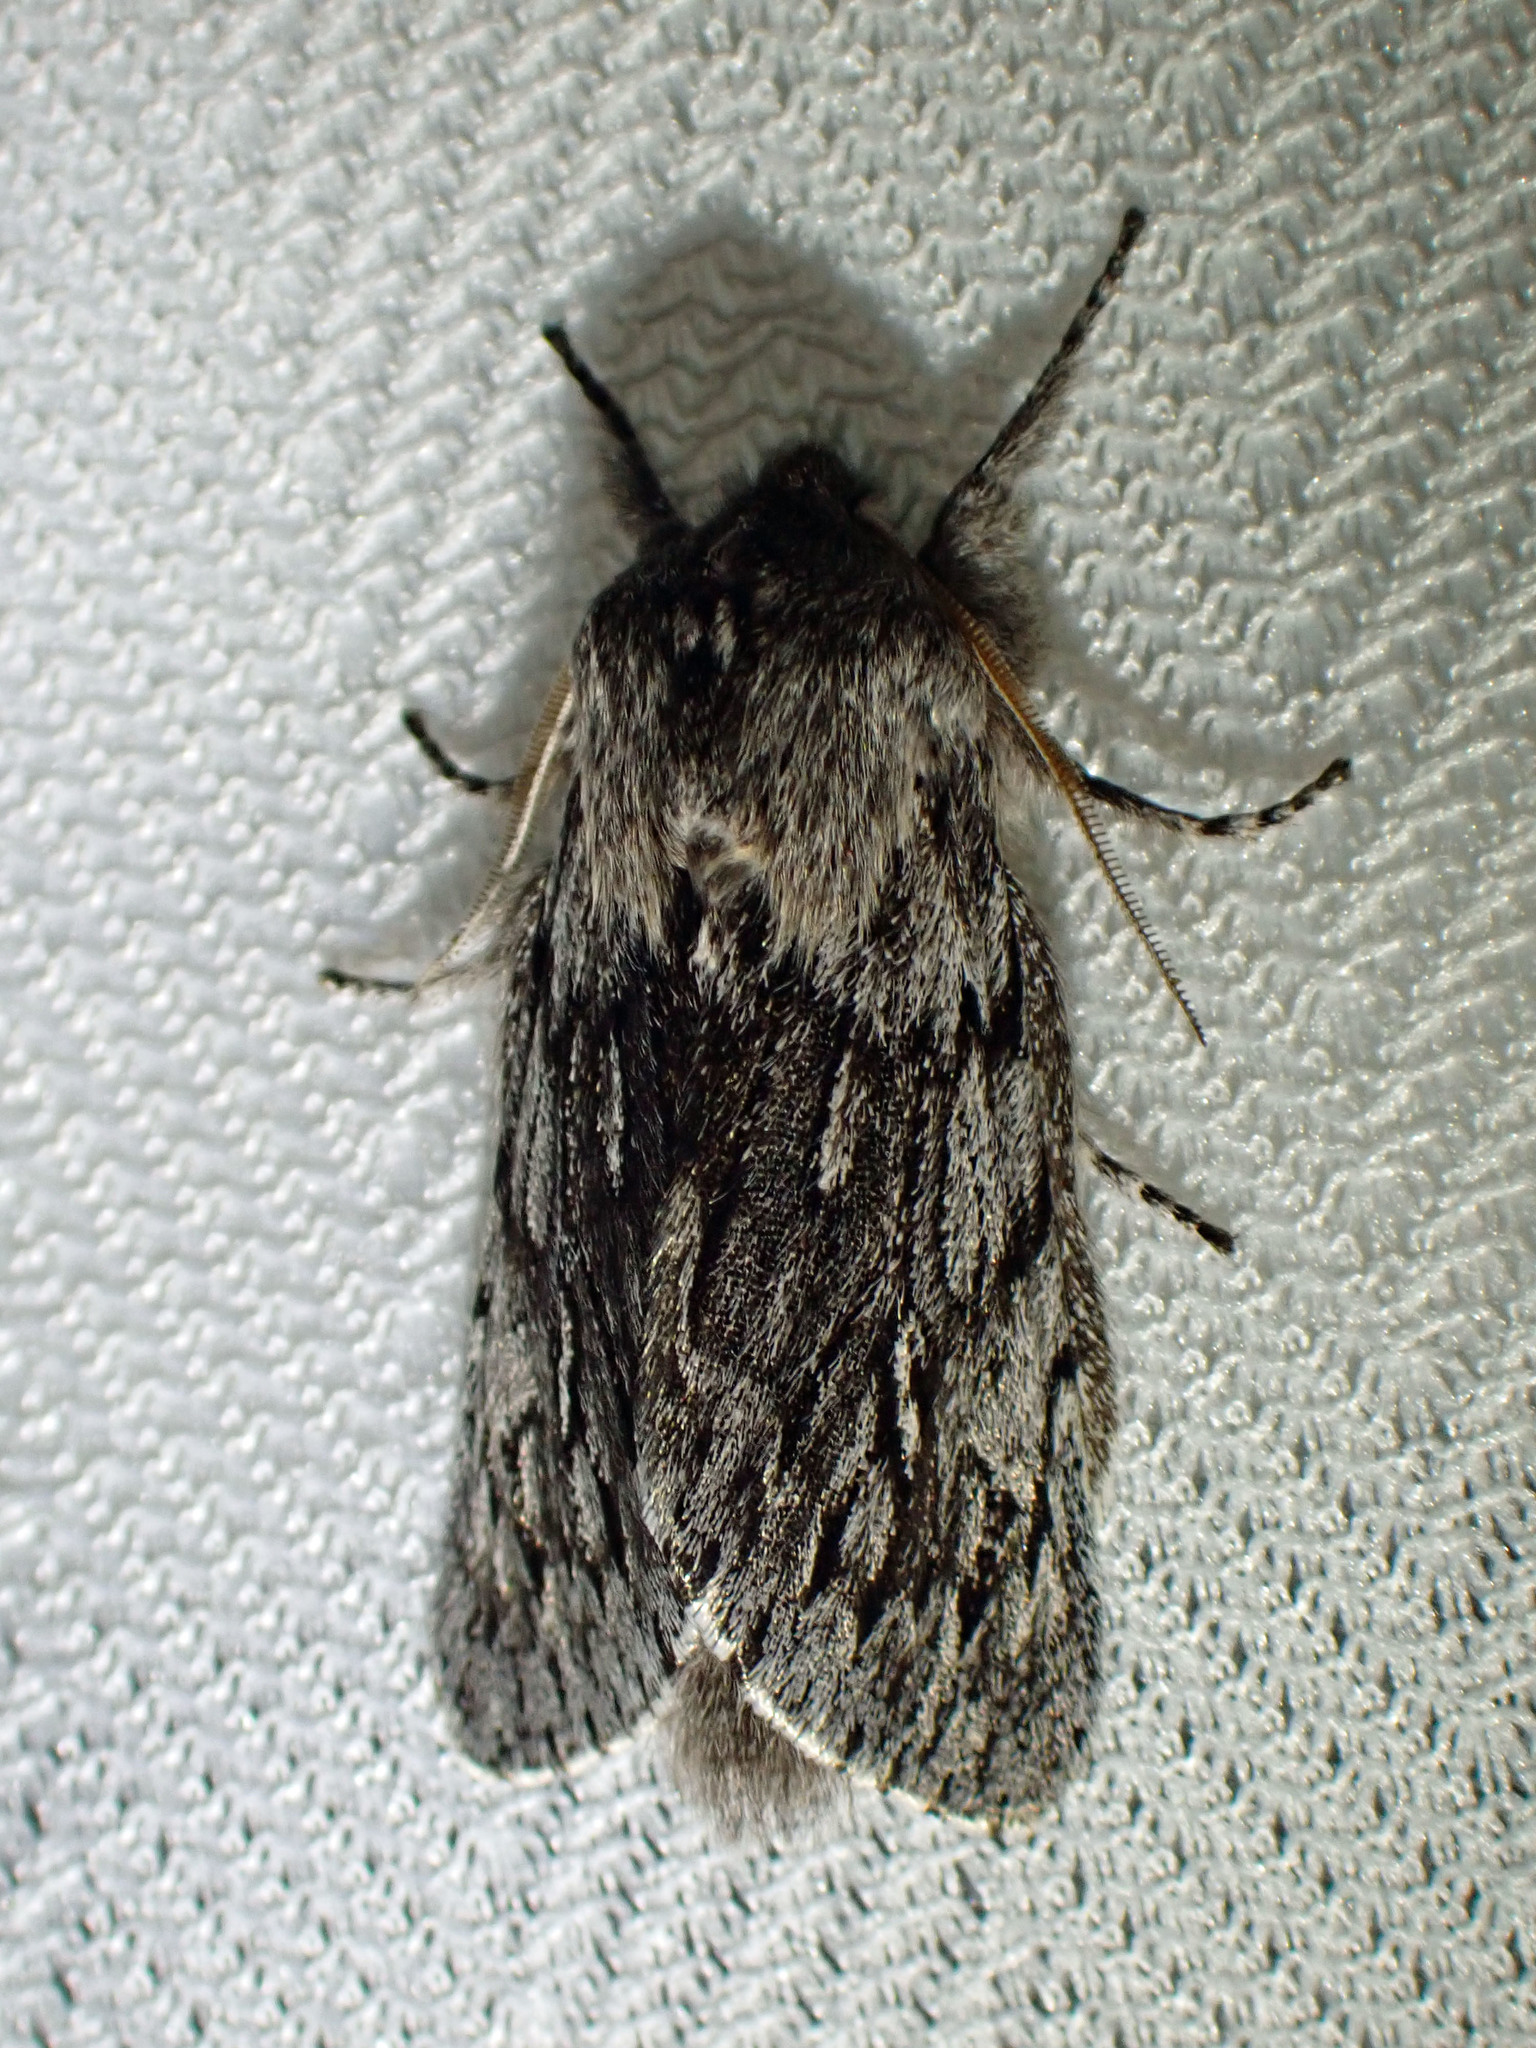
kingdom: Animalia
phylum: Arthropoda
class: Insecta
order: Lepidoptera
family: Noctuidae
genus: Brachionycha
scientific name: Brachionycha borealis
